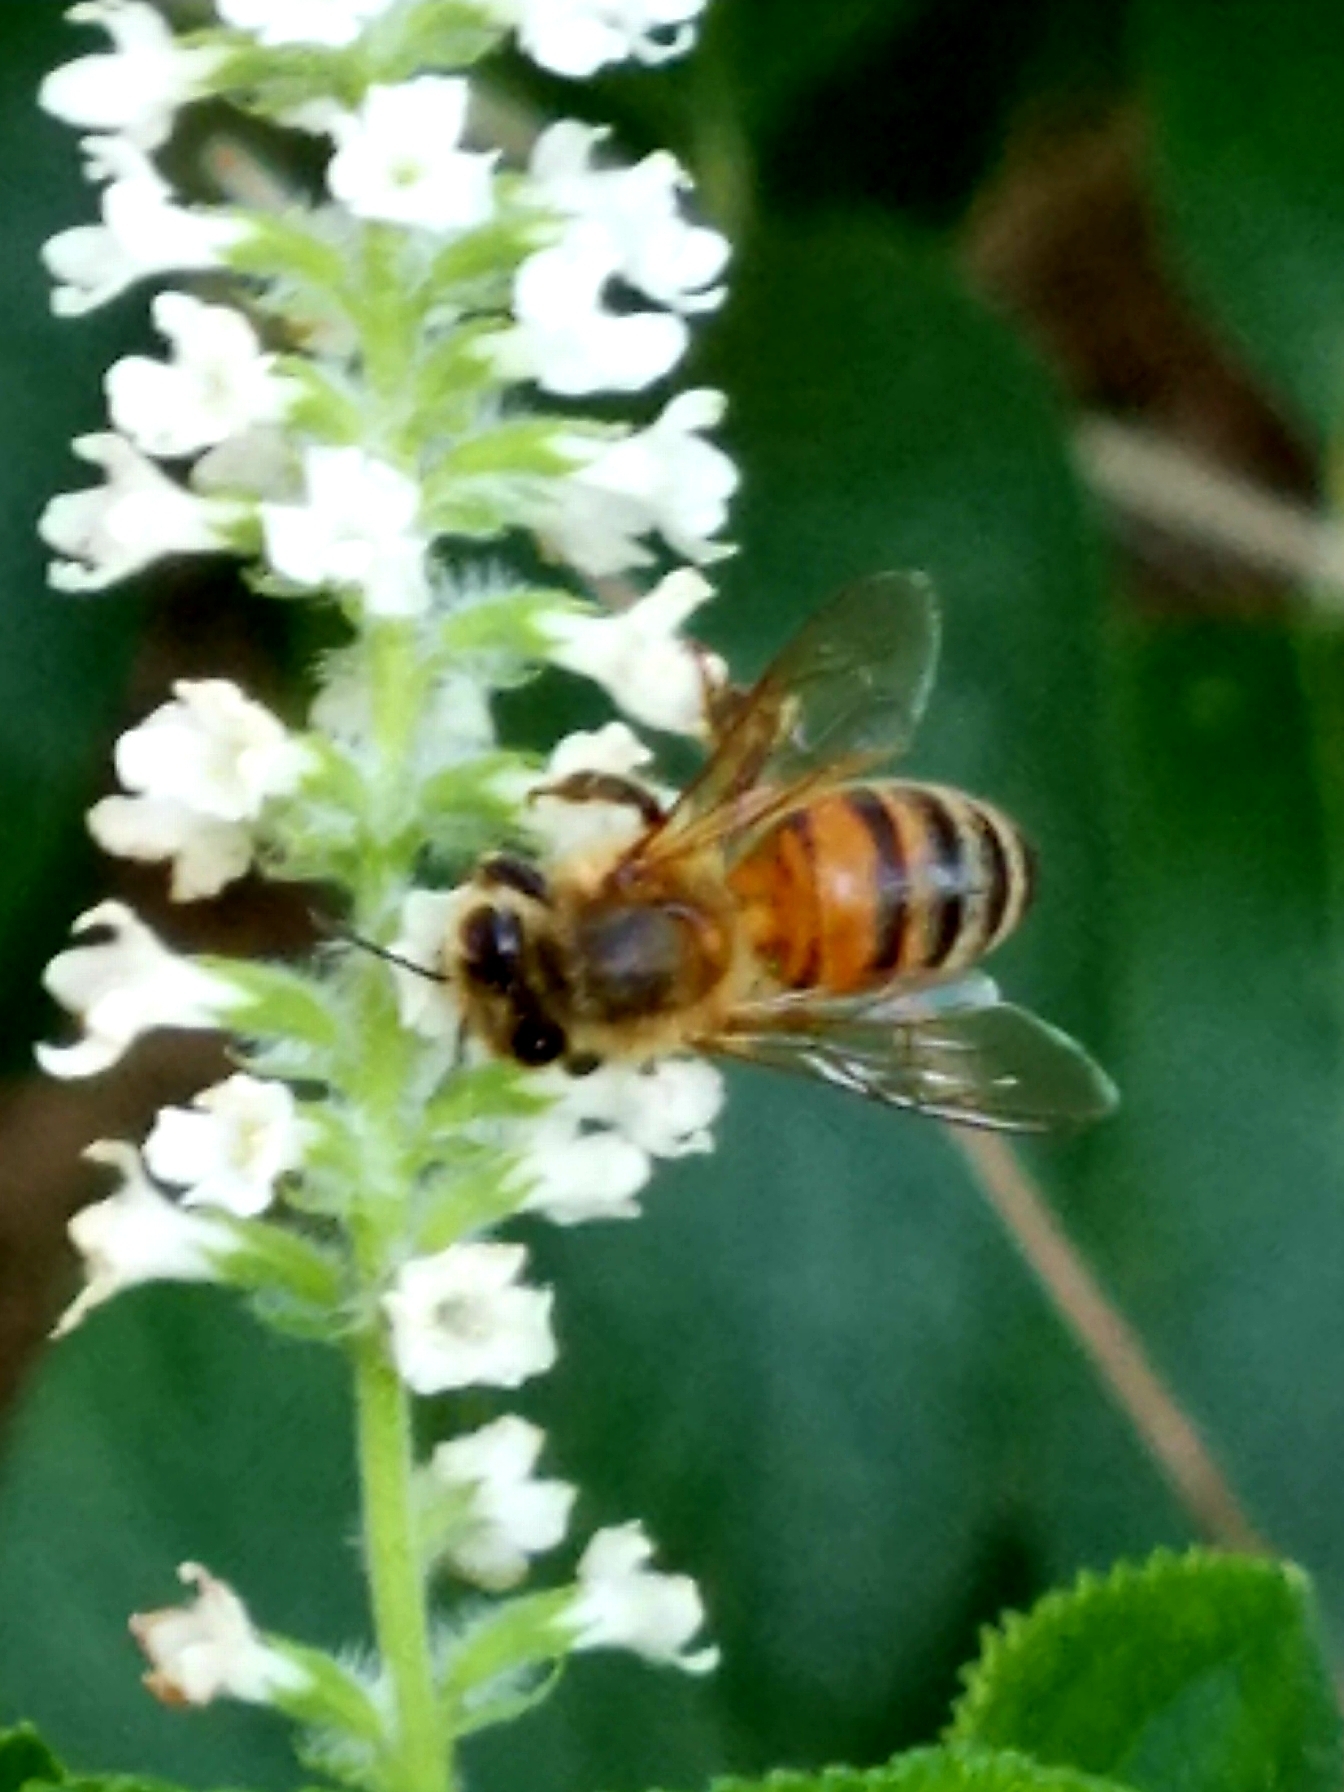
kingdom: Animalia
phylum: Arthropoda
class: Insecta
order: Hymenoptera
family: Apidae
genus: Apis
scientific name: Apis mellifera
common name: Honey bee
